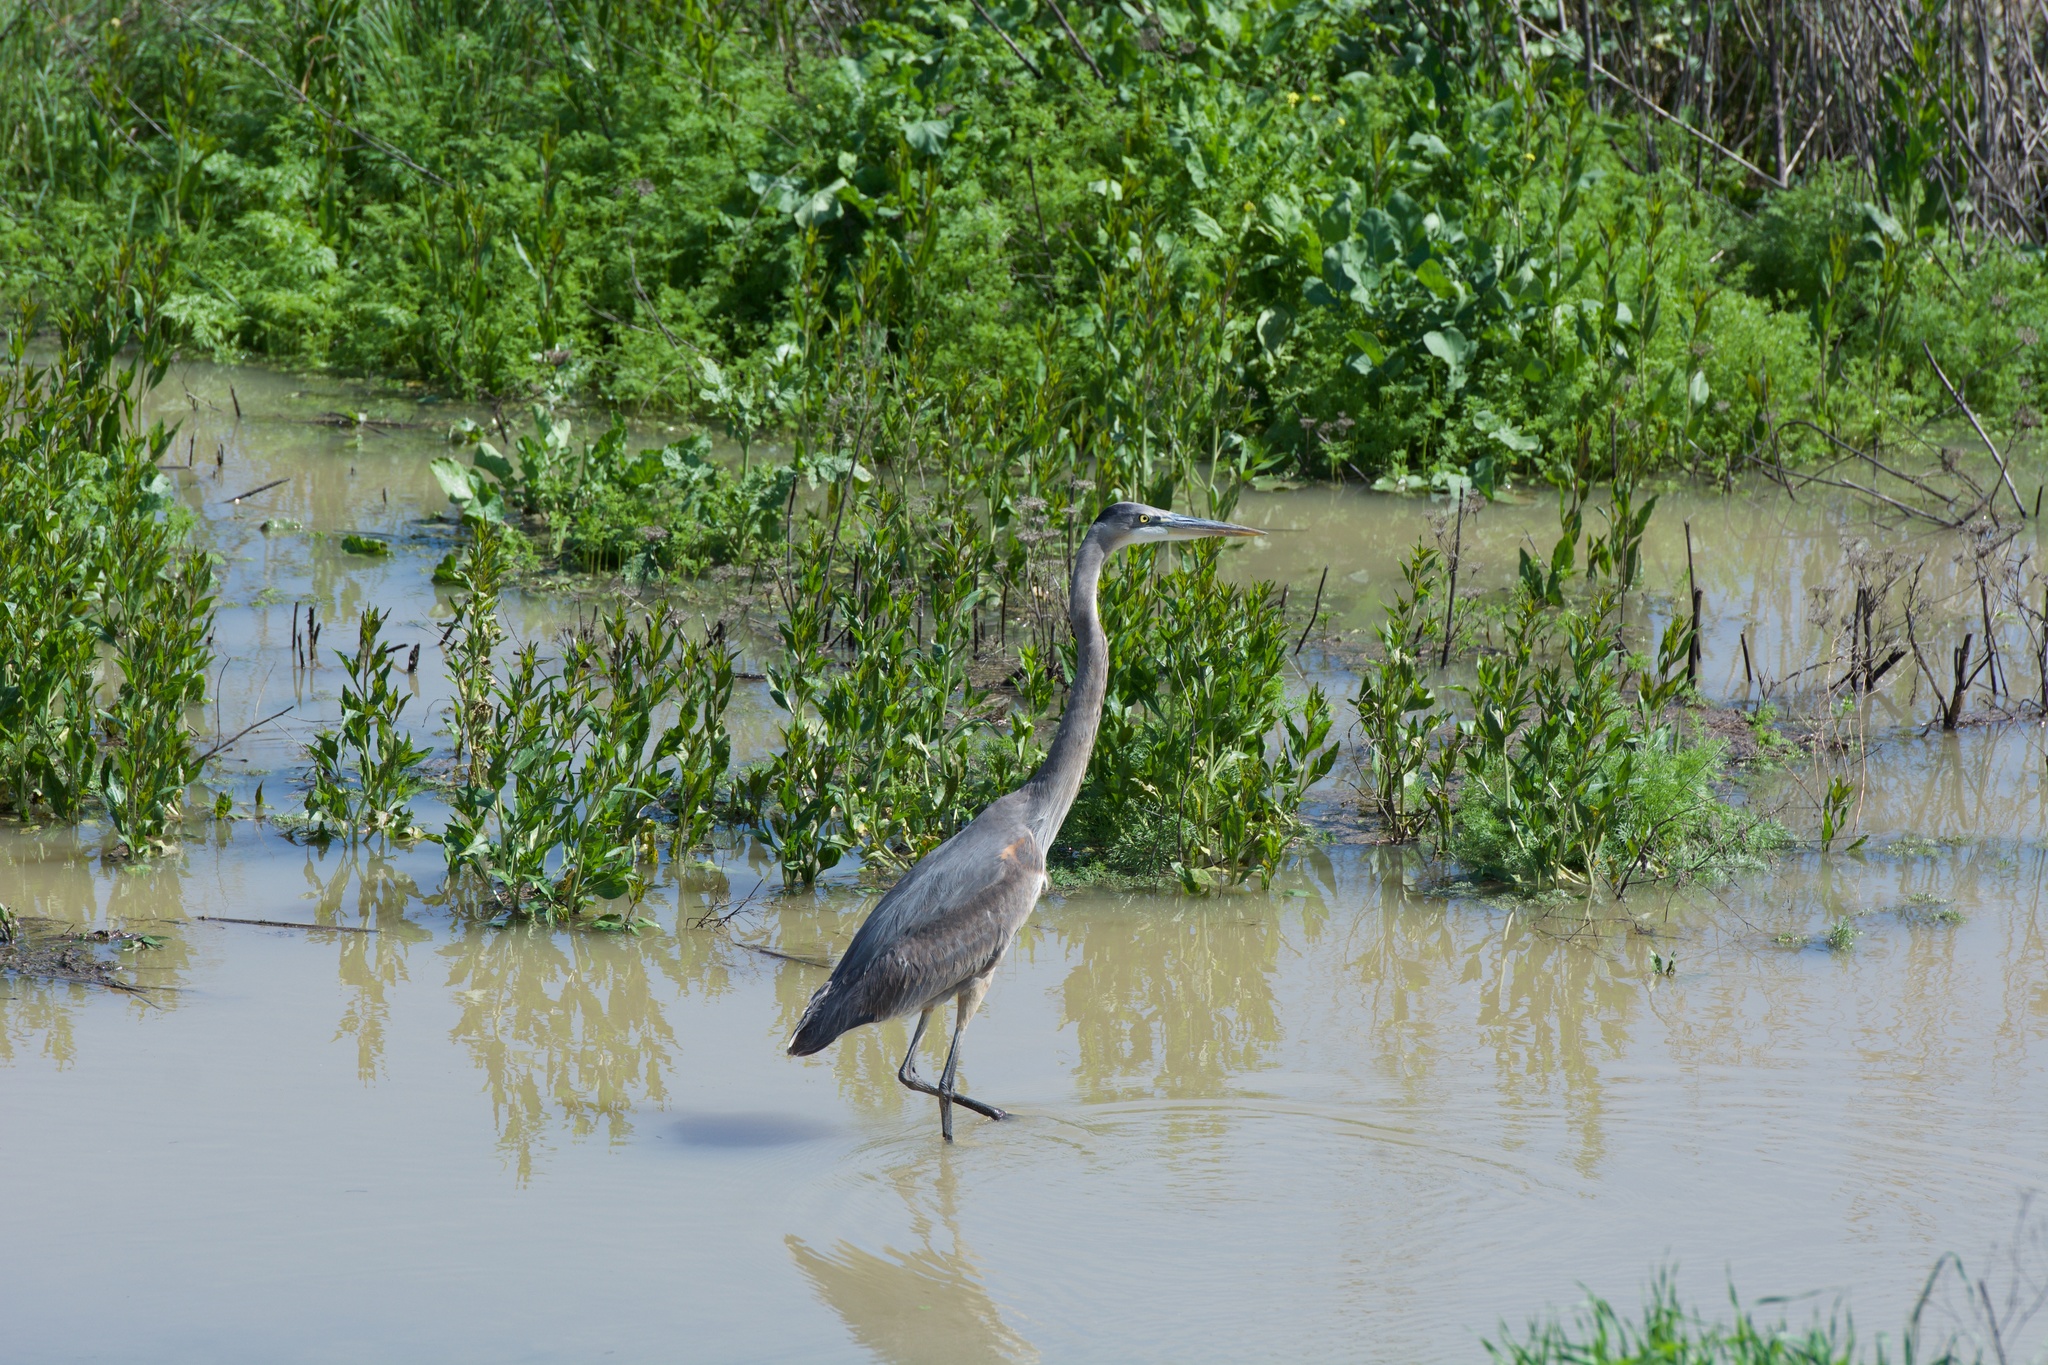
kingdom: Animalia
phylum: Chordata
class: Aves
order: Pelecaniformes
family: Ardeidae
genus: Ardea
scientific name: Ardea herodias
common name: Great blue heron
